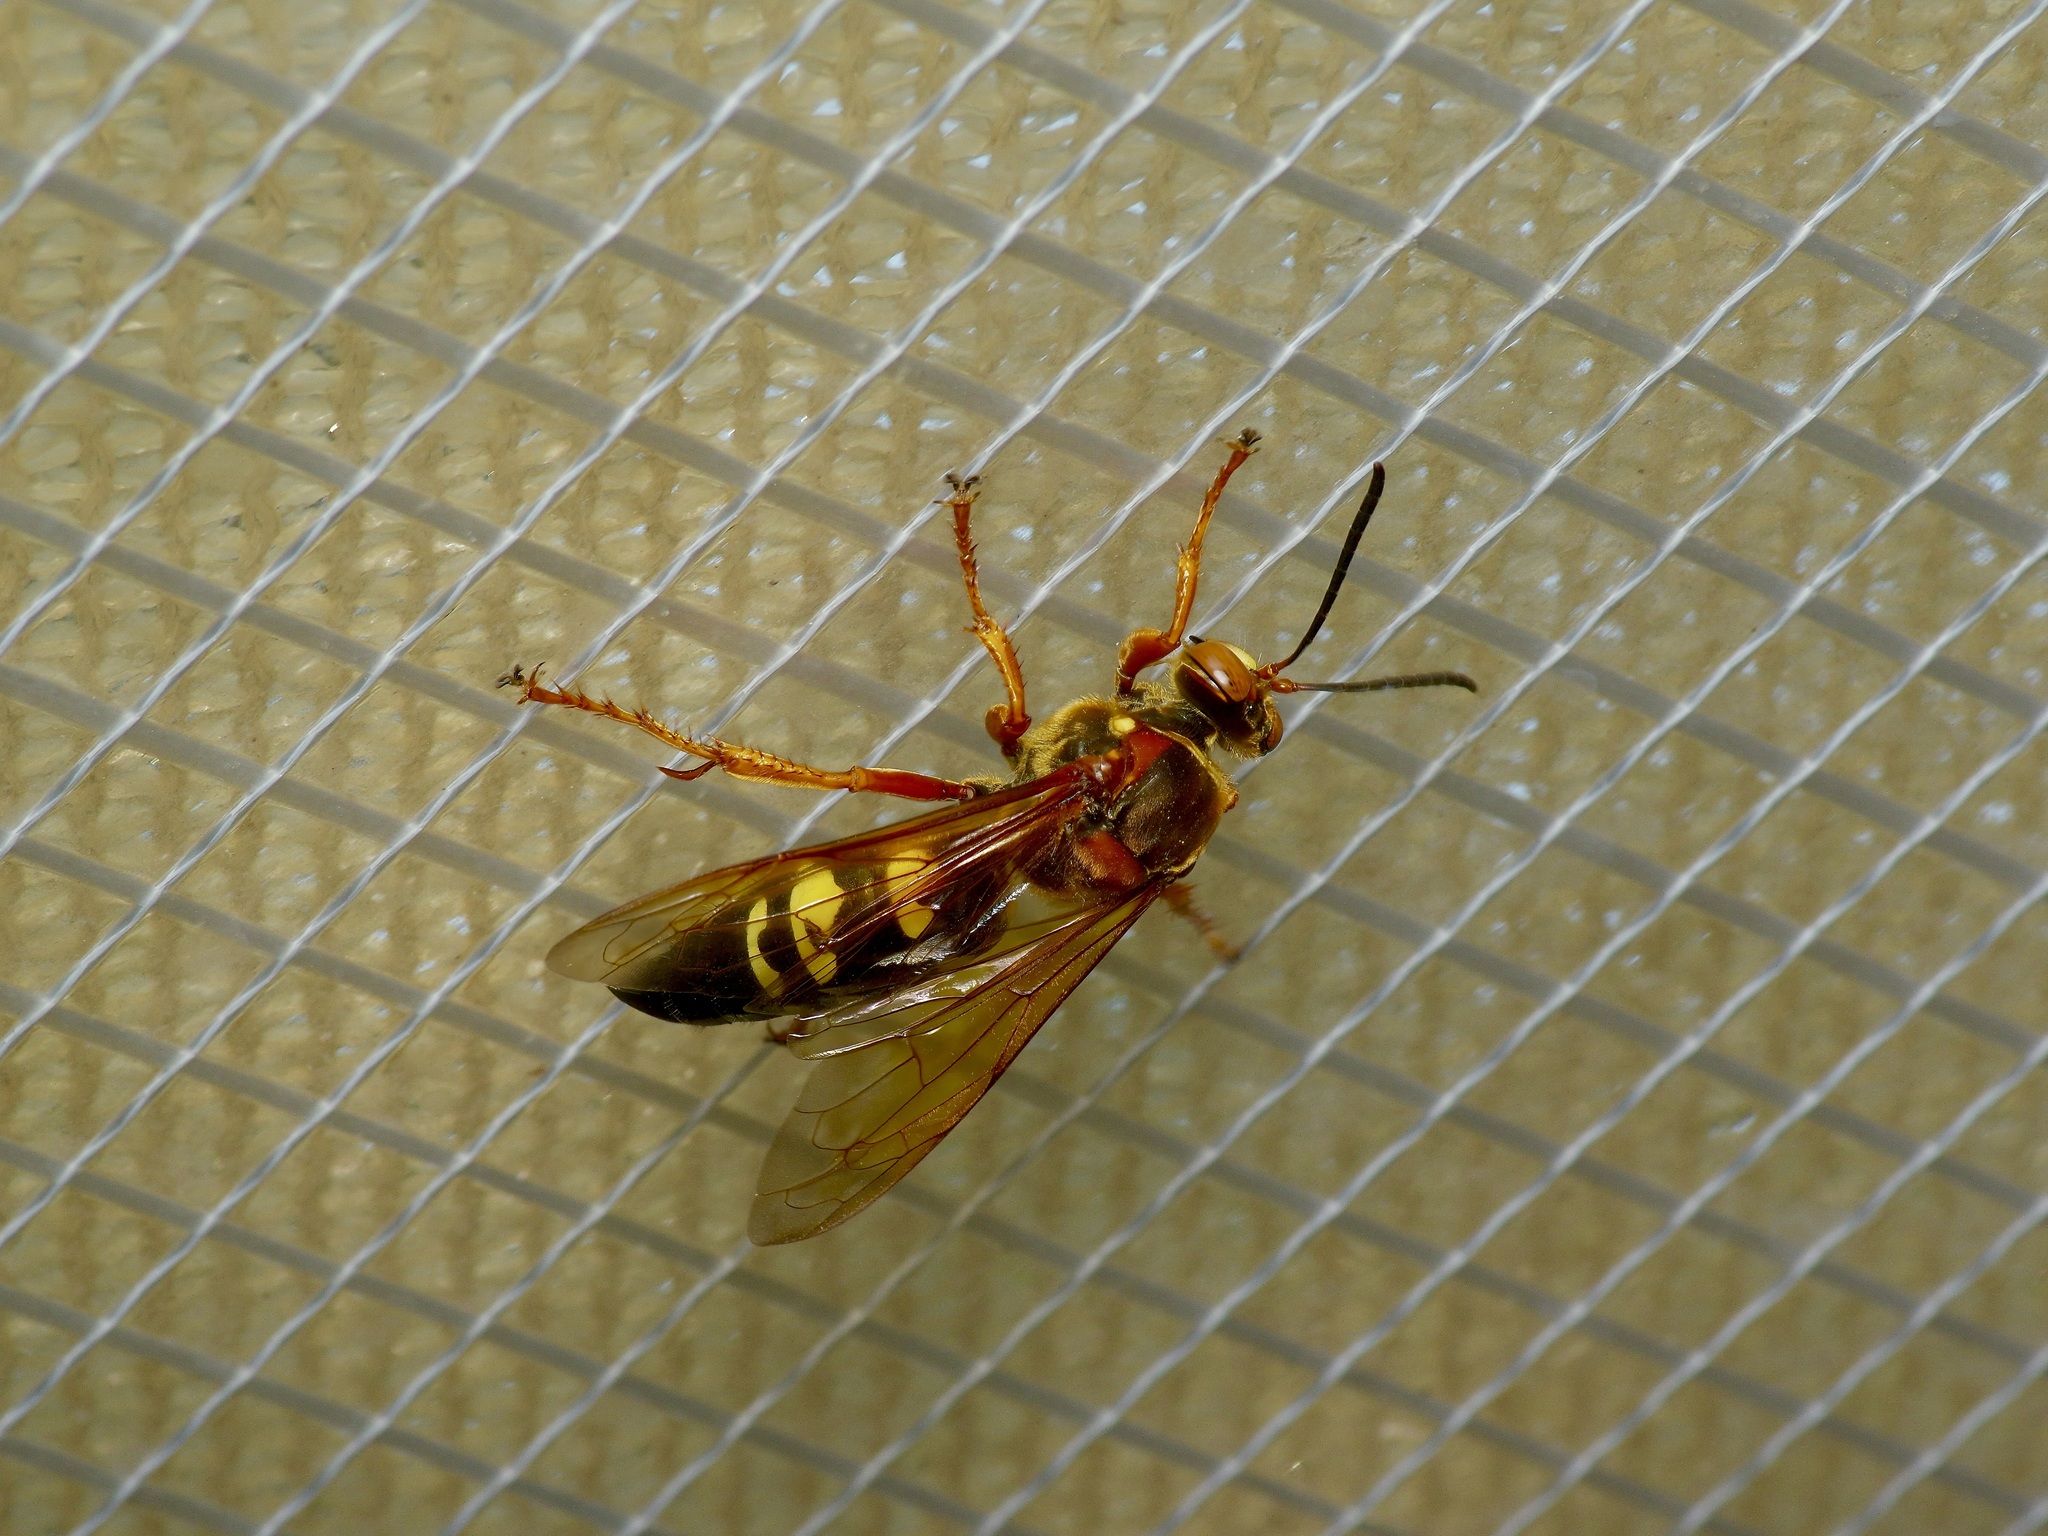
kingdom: Animalia
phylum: Arthropoda
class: Insecta
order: Hymenoptera
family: Crabronidae
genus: Sphecius
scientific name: Sphecius speciosus
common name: Cicada killer
